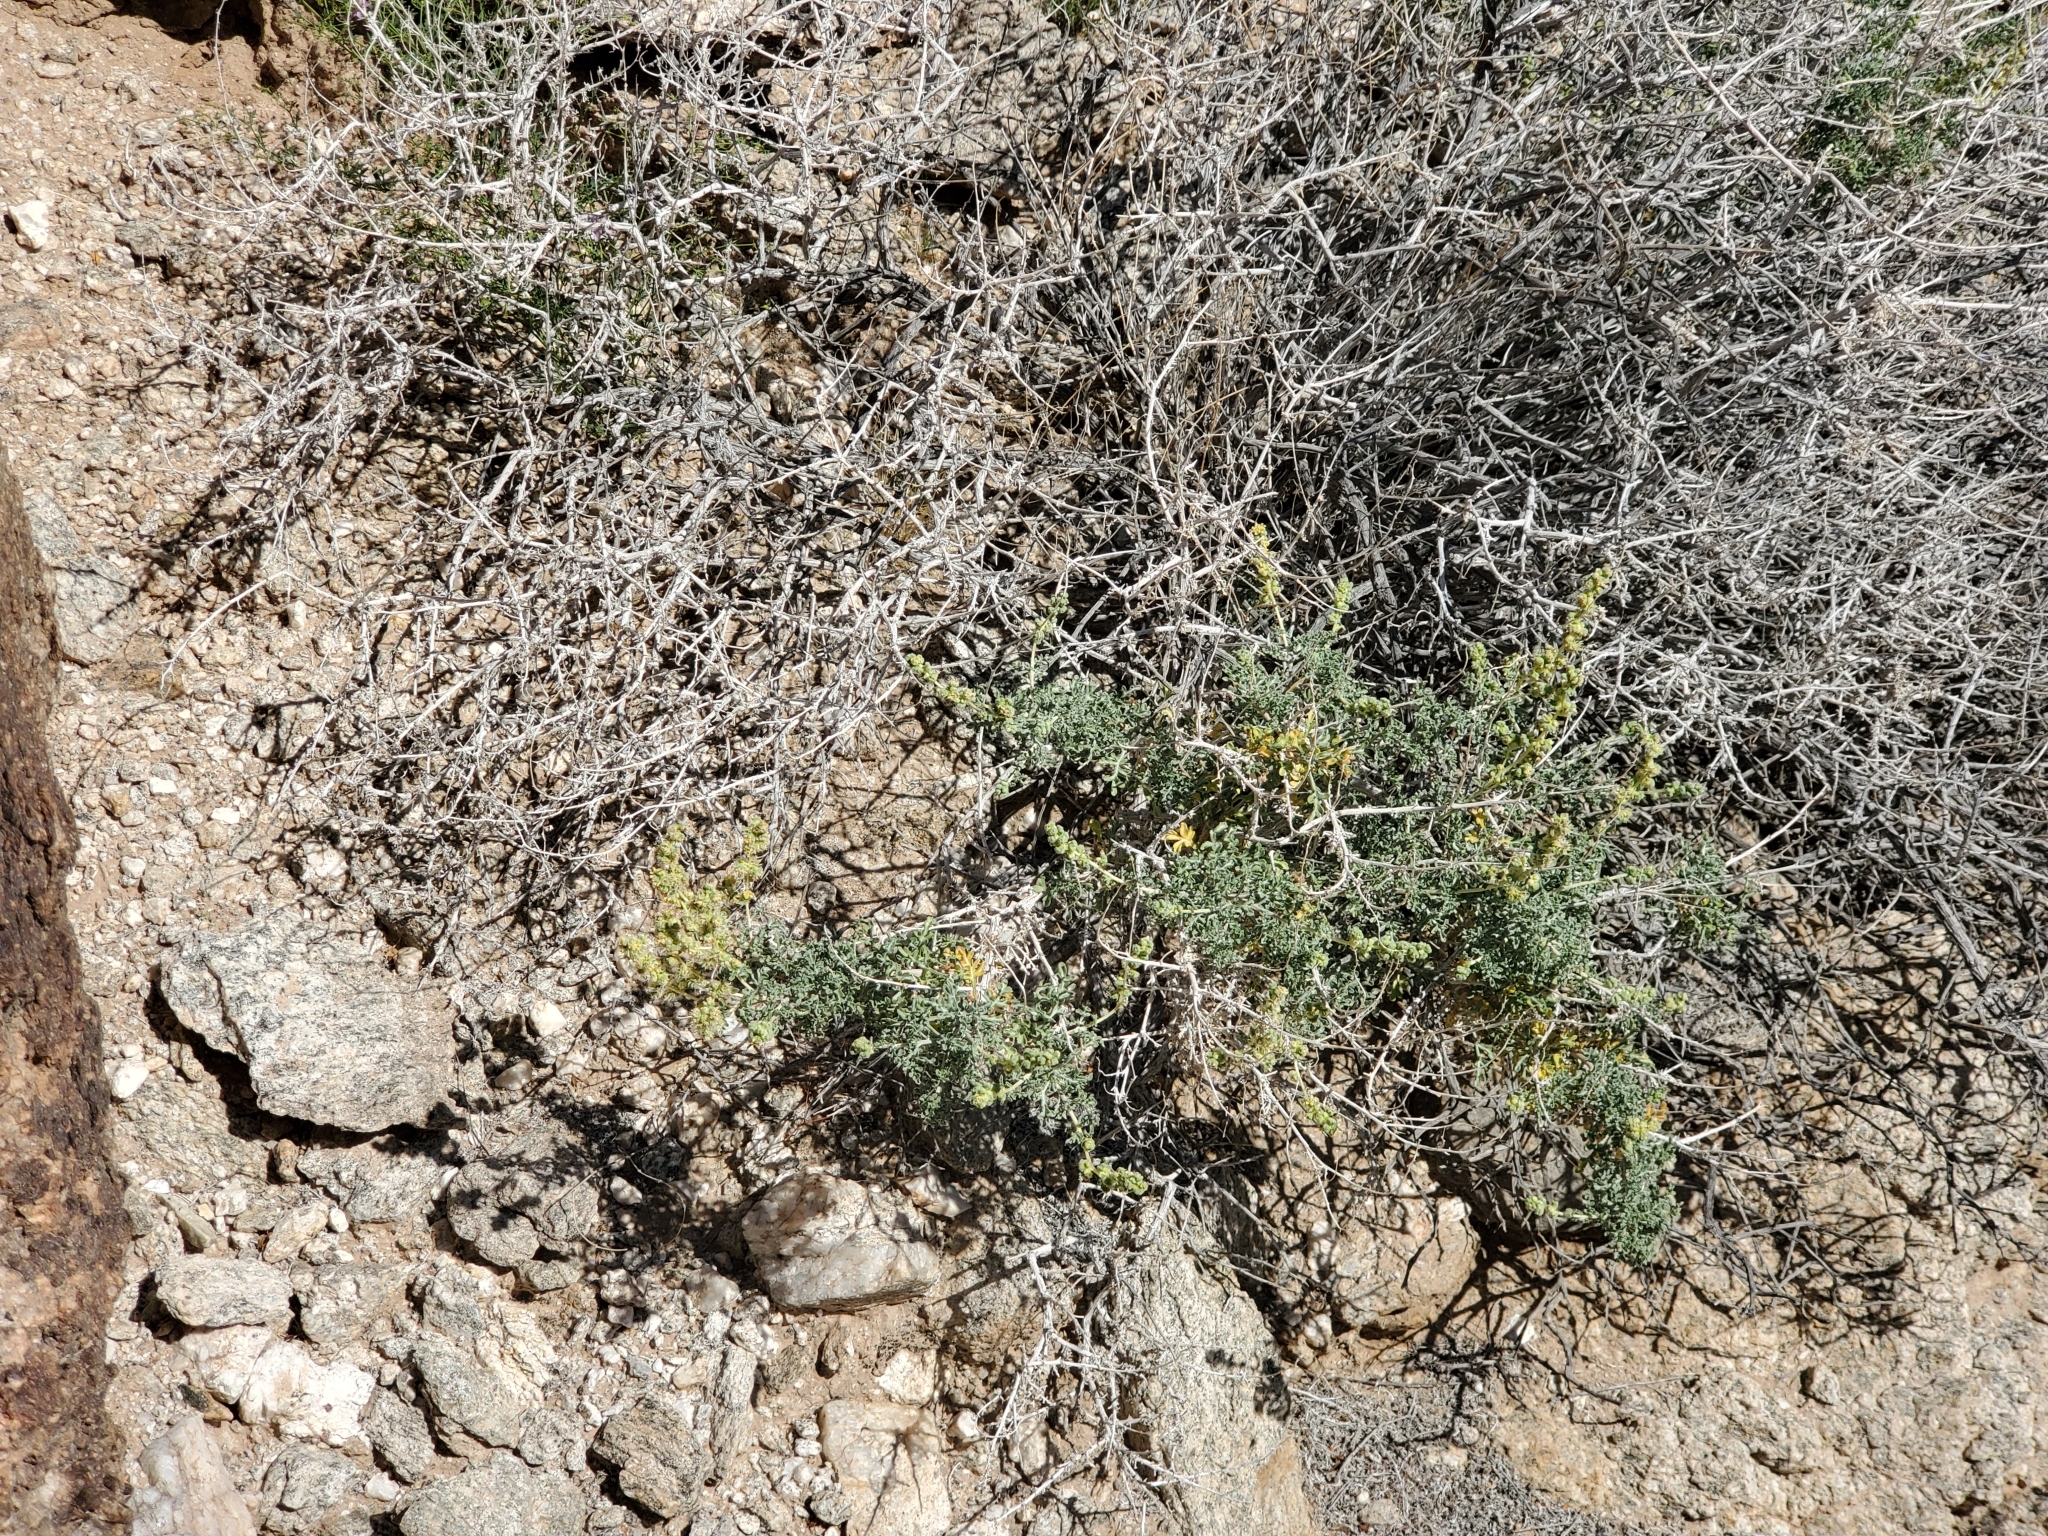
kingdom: Plantae
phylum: Tracheophyta
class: Magnoliopsida
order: Asterales
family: Asteraceae
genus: Ambrosia
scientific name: Ambrosia dumosa
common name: Bur-sage
